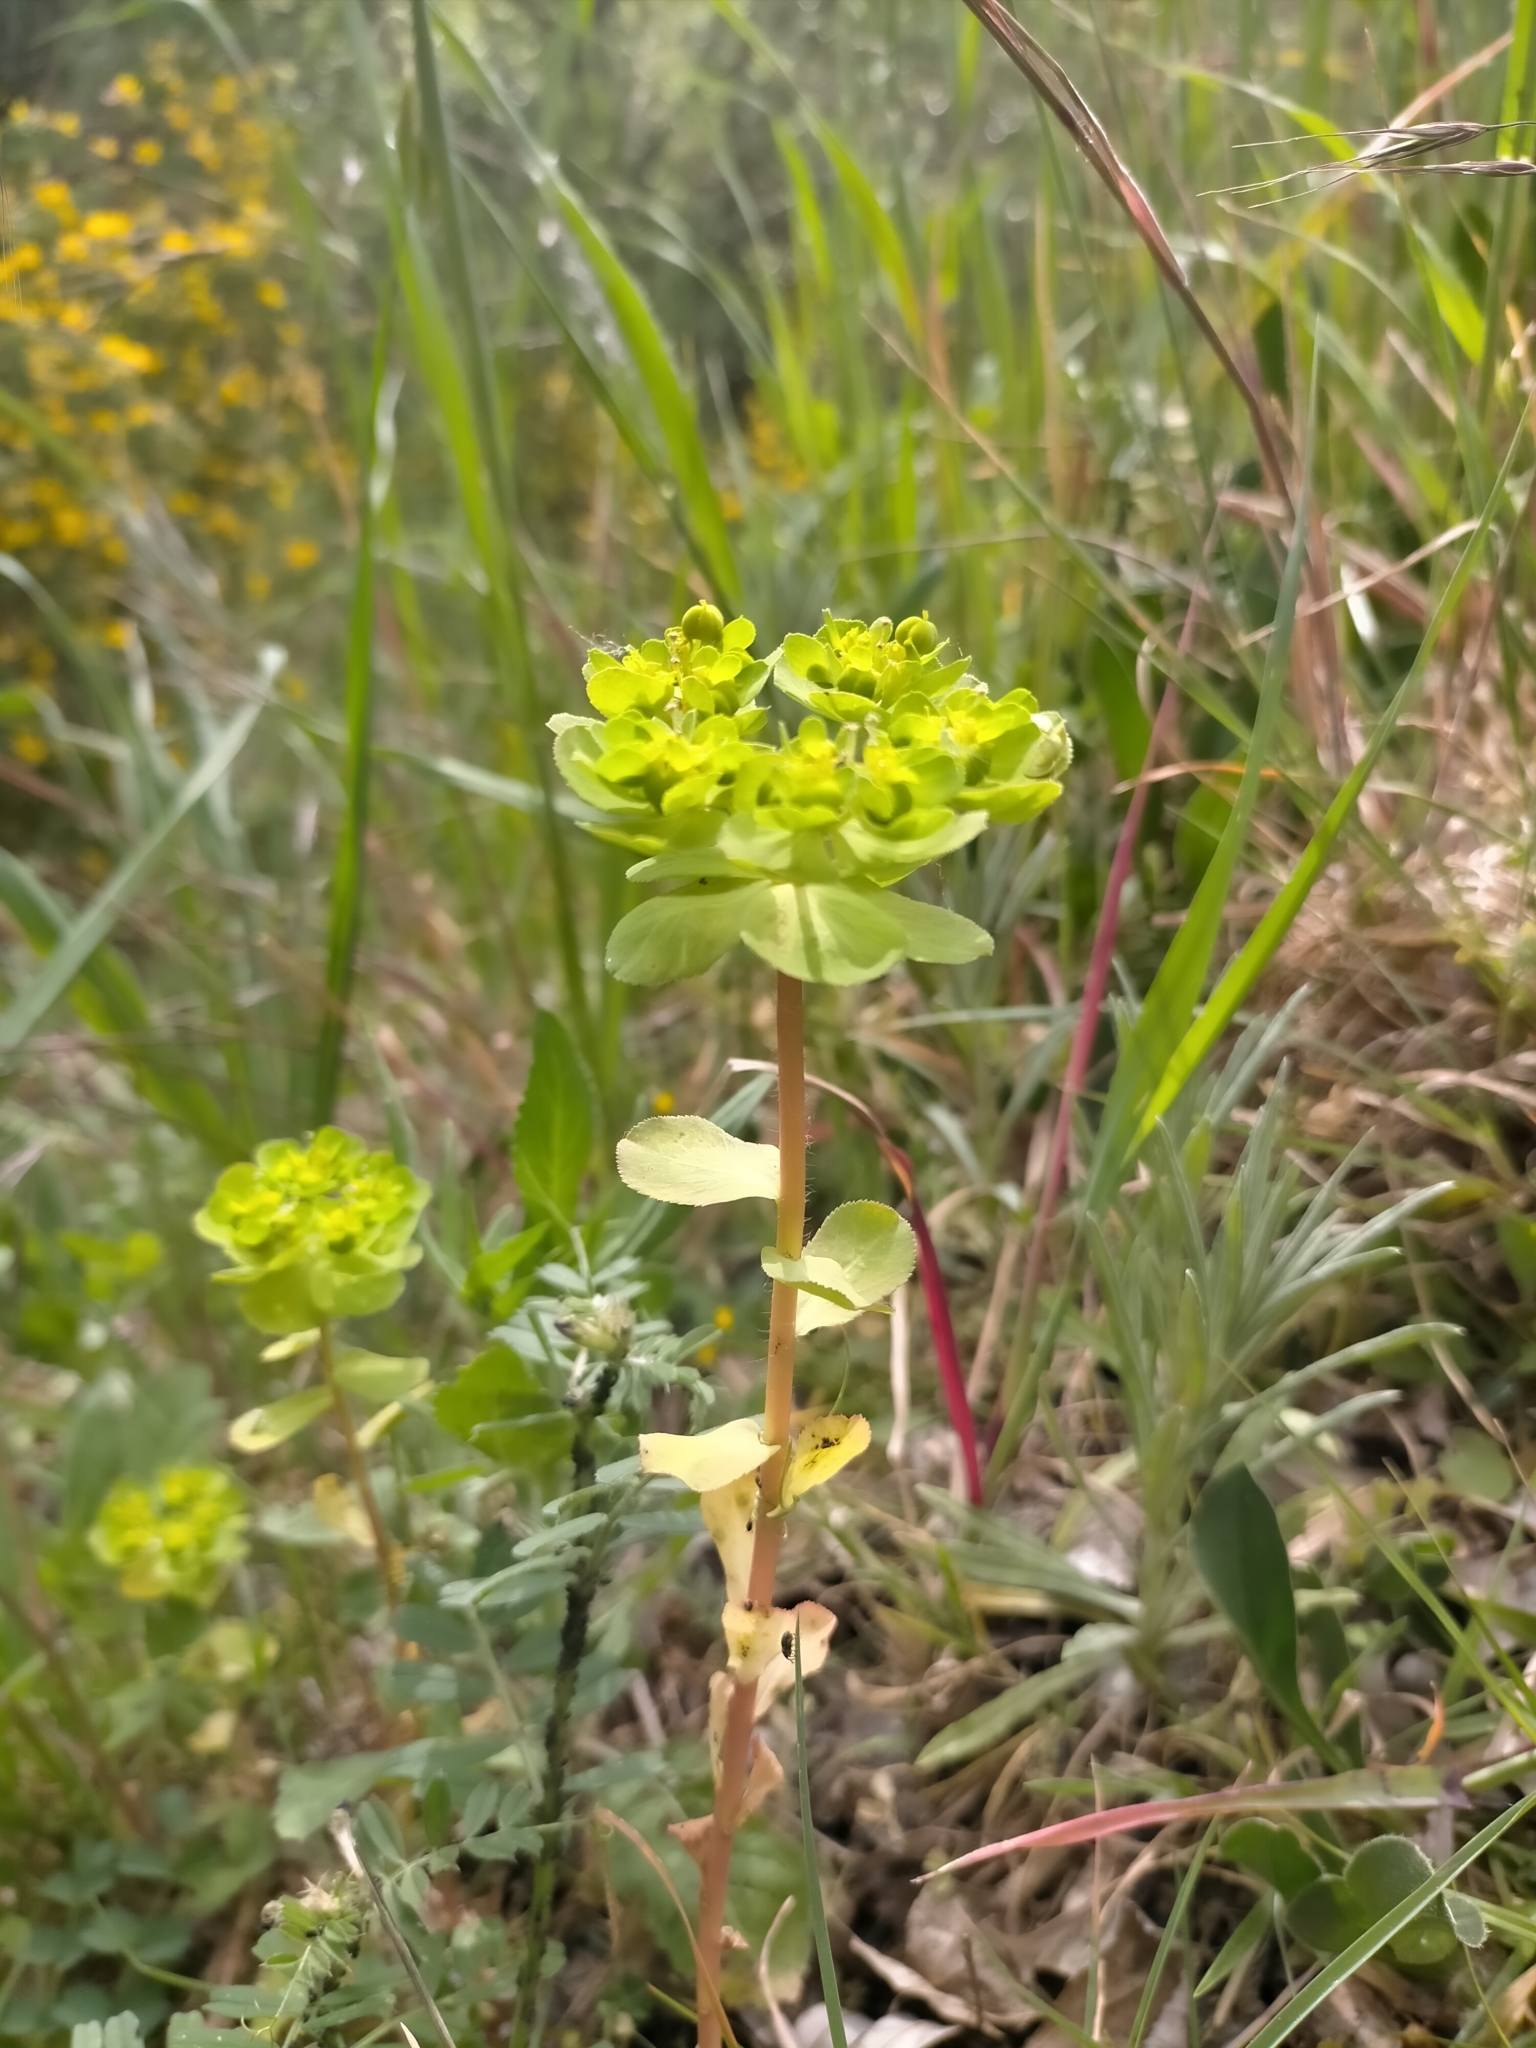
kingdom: Plantae
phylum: Tracheophyta
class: Magnoliopsida
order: Malpighiales
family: Euphorbiaceae
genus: Euphorbia
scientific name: Euphorbia helioscopia
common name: Sun spurge
